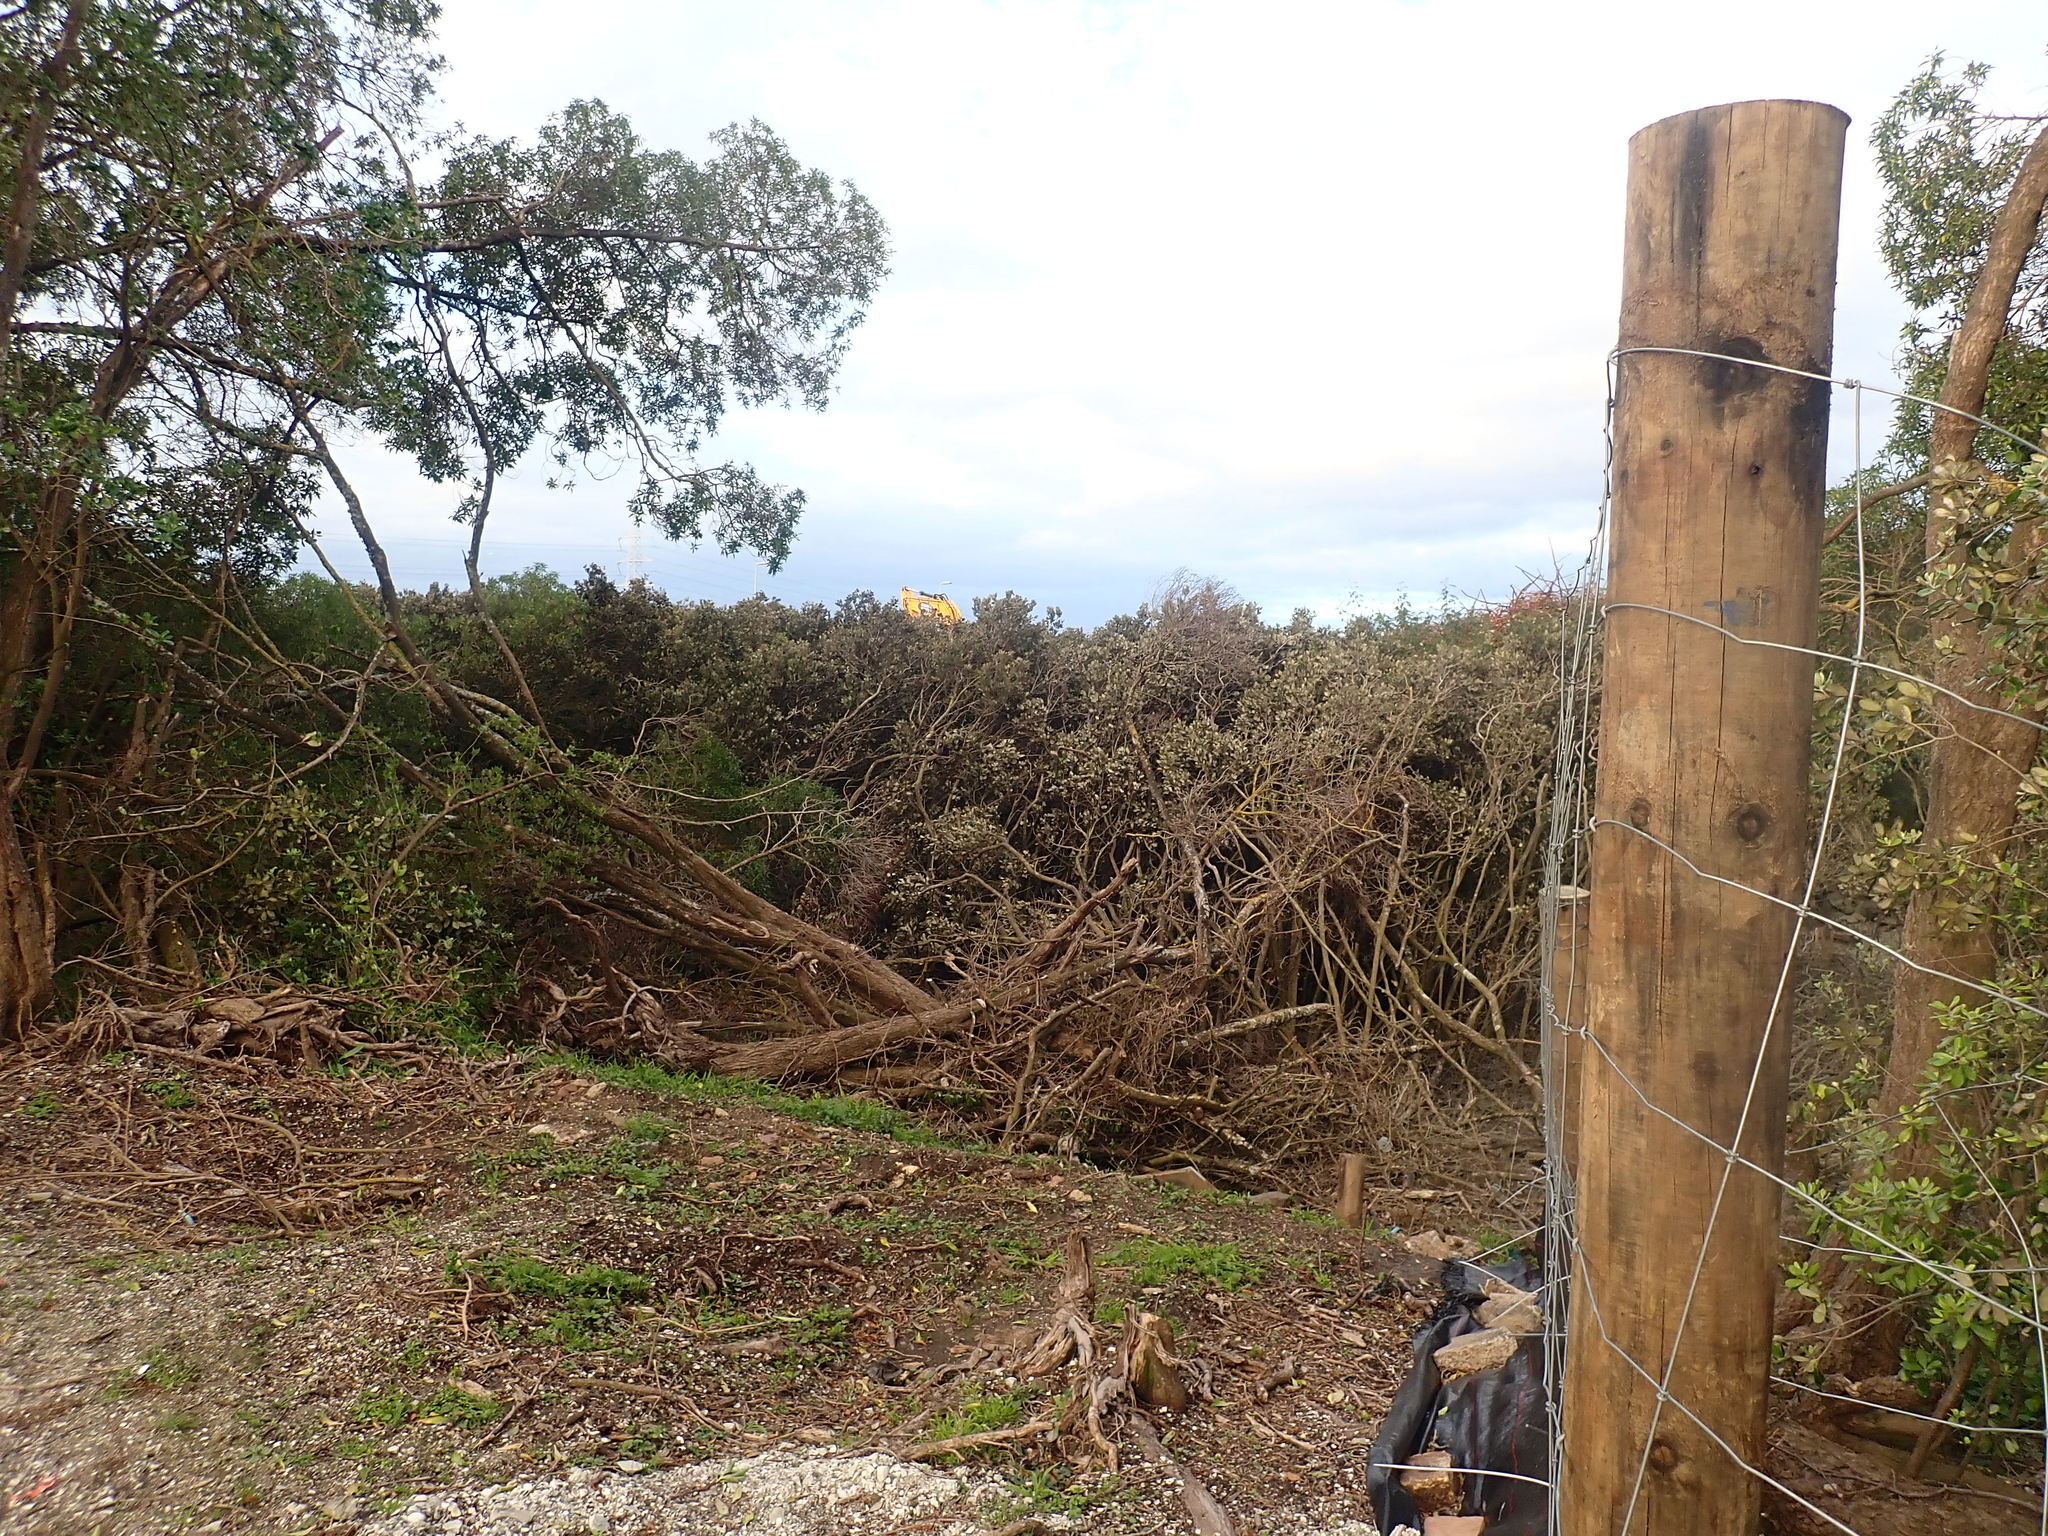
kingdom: Plantae
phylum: Tracheophyta
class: Magnoliopsida
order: Lamiales
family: Acanthaceae
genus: Avicennia
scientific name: Avicennia marina
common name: Gray mangrove
